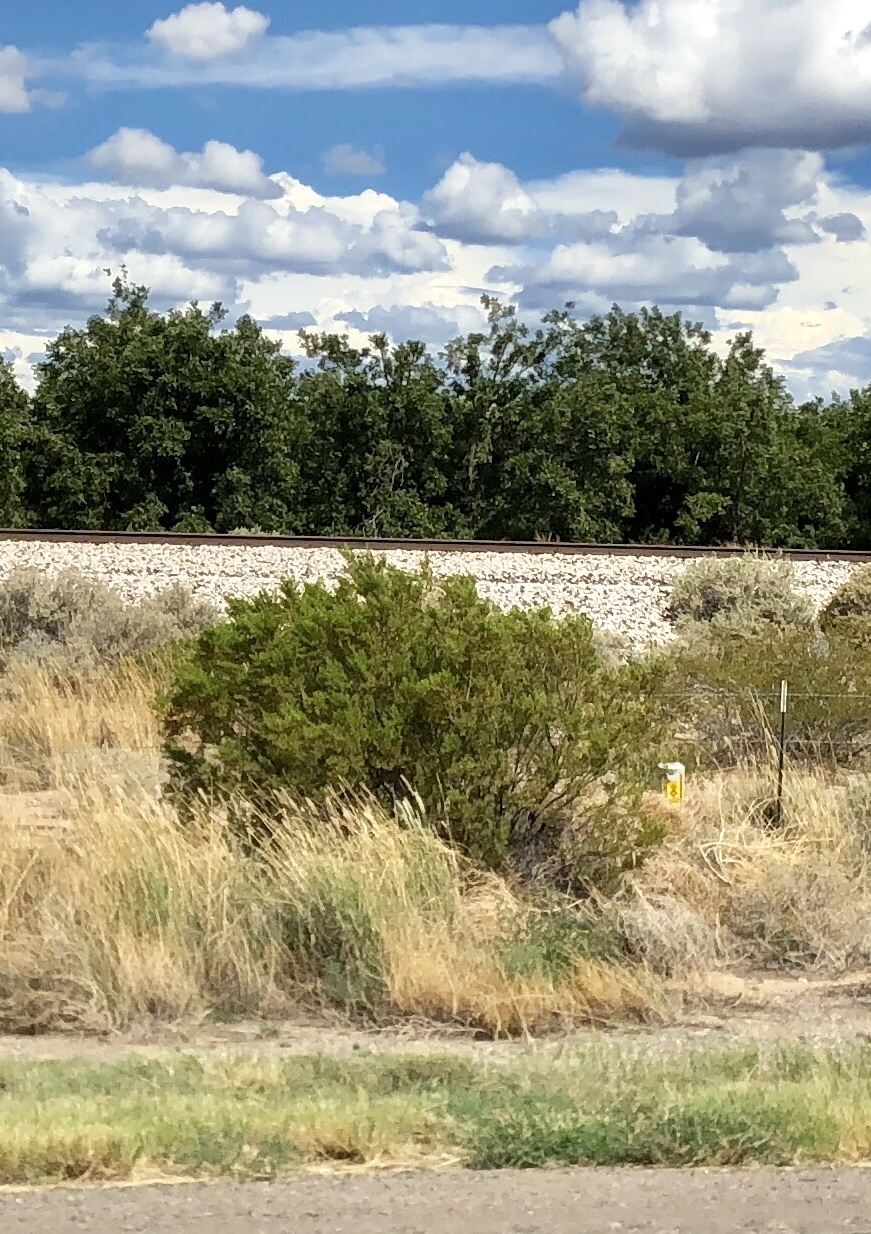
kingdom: Plantae
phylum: Tracheophyta
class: Magnoliopsida
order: Zygophyllales
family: Zygophyllaceae
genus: Larrea
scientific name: Larrea tridentata
